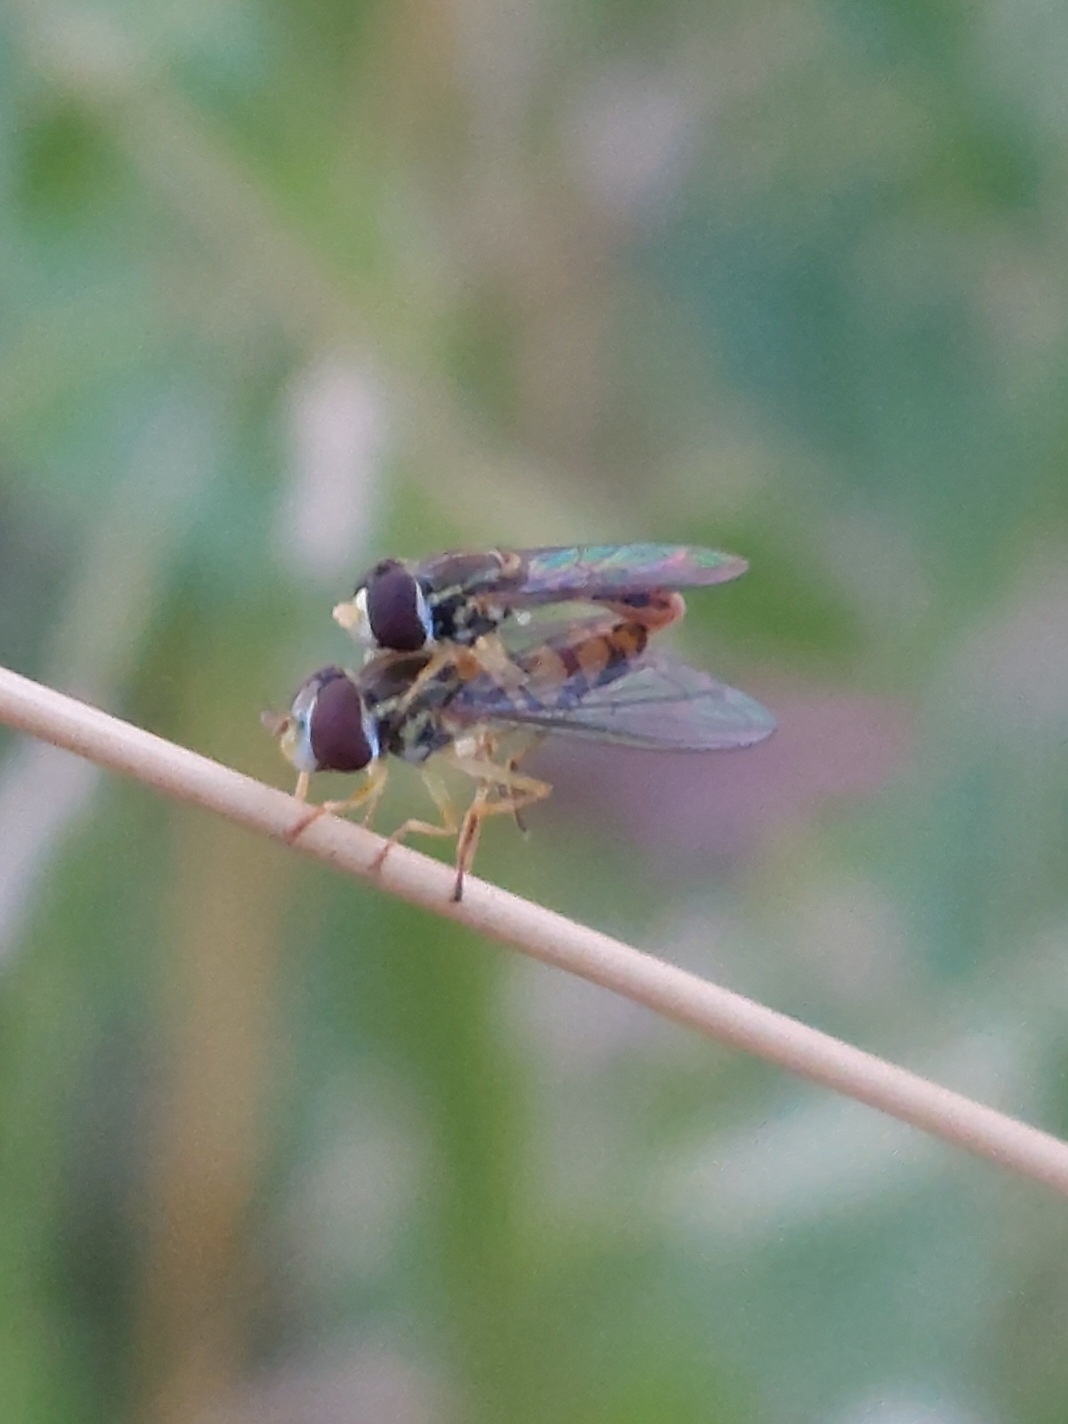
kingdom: Animalia
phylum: Arthropoda
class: Insecta
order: Diptera
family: Syrphidae
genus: Toxomerus
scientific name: Toxomerus marginatus
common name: Syrphid fly
